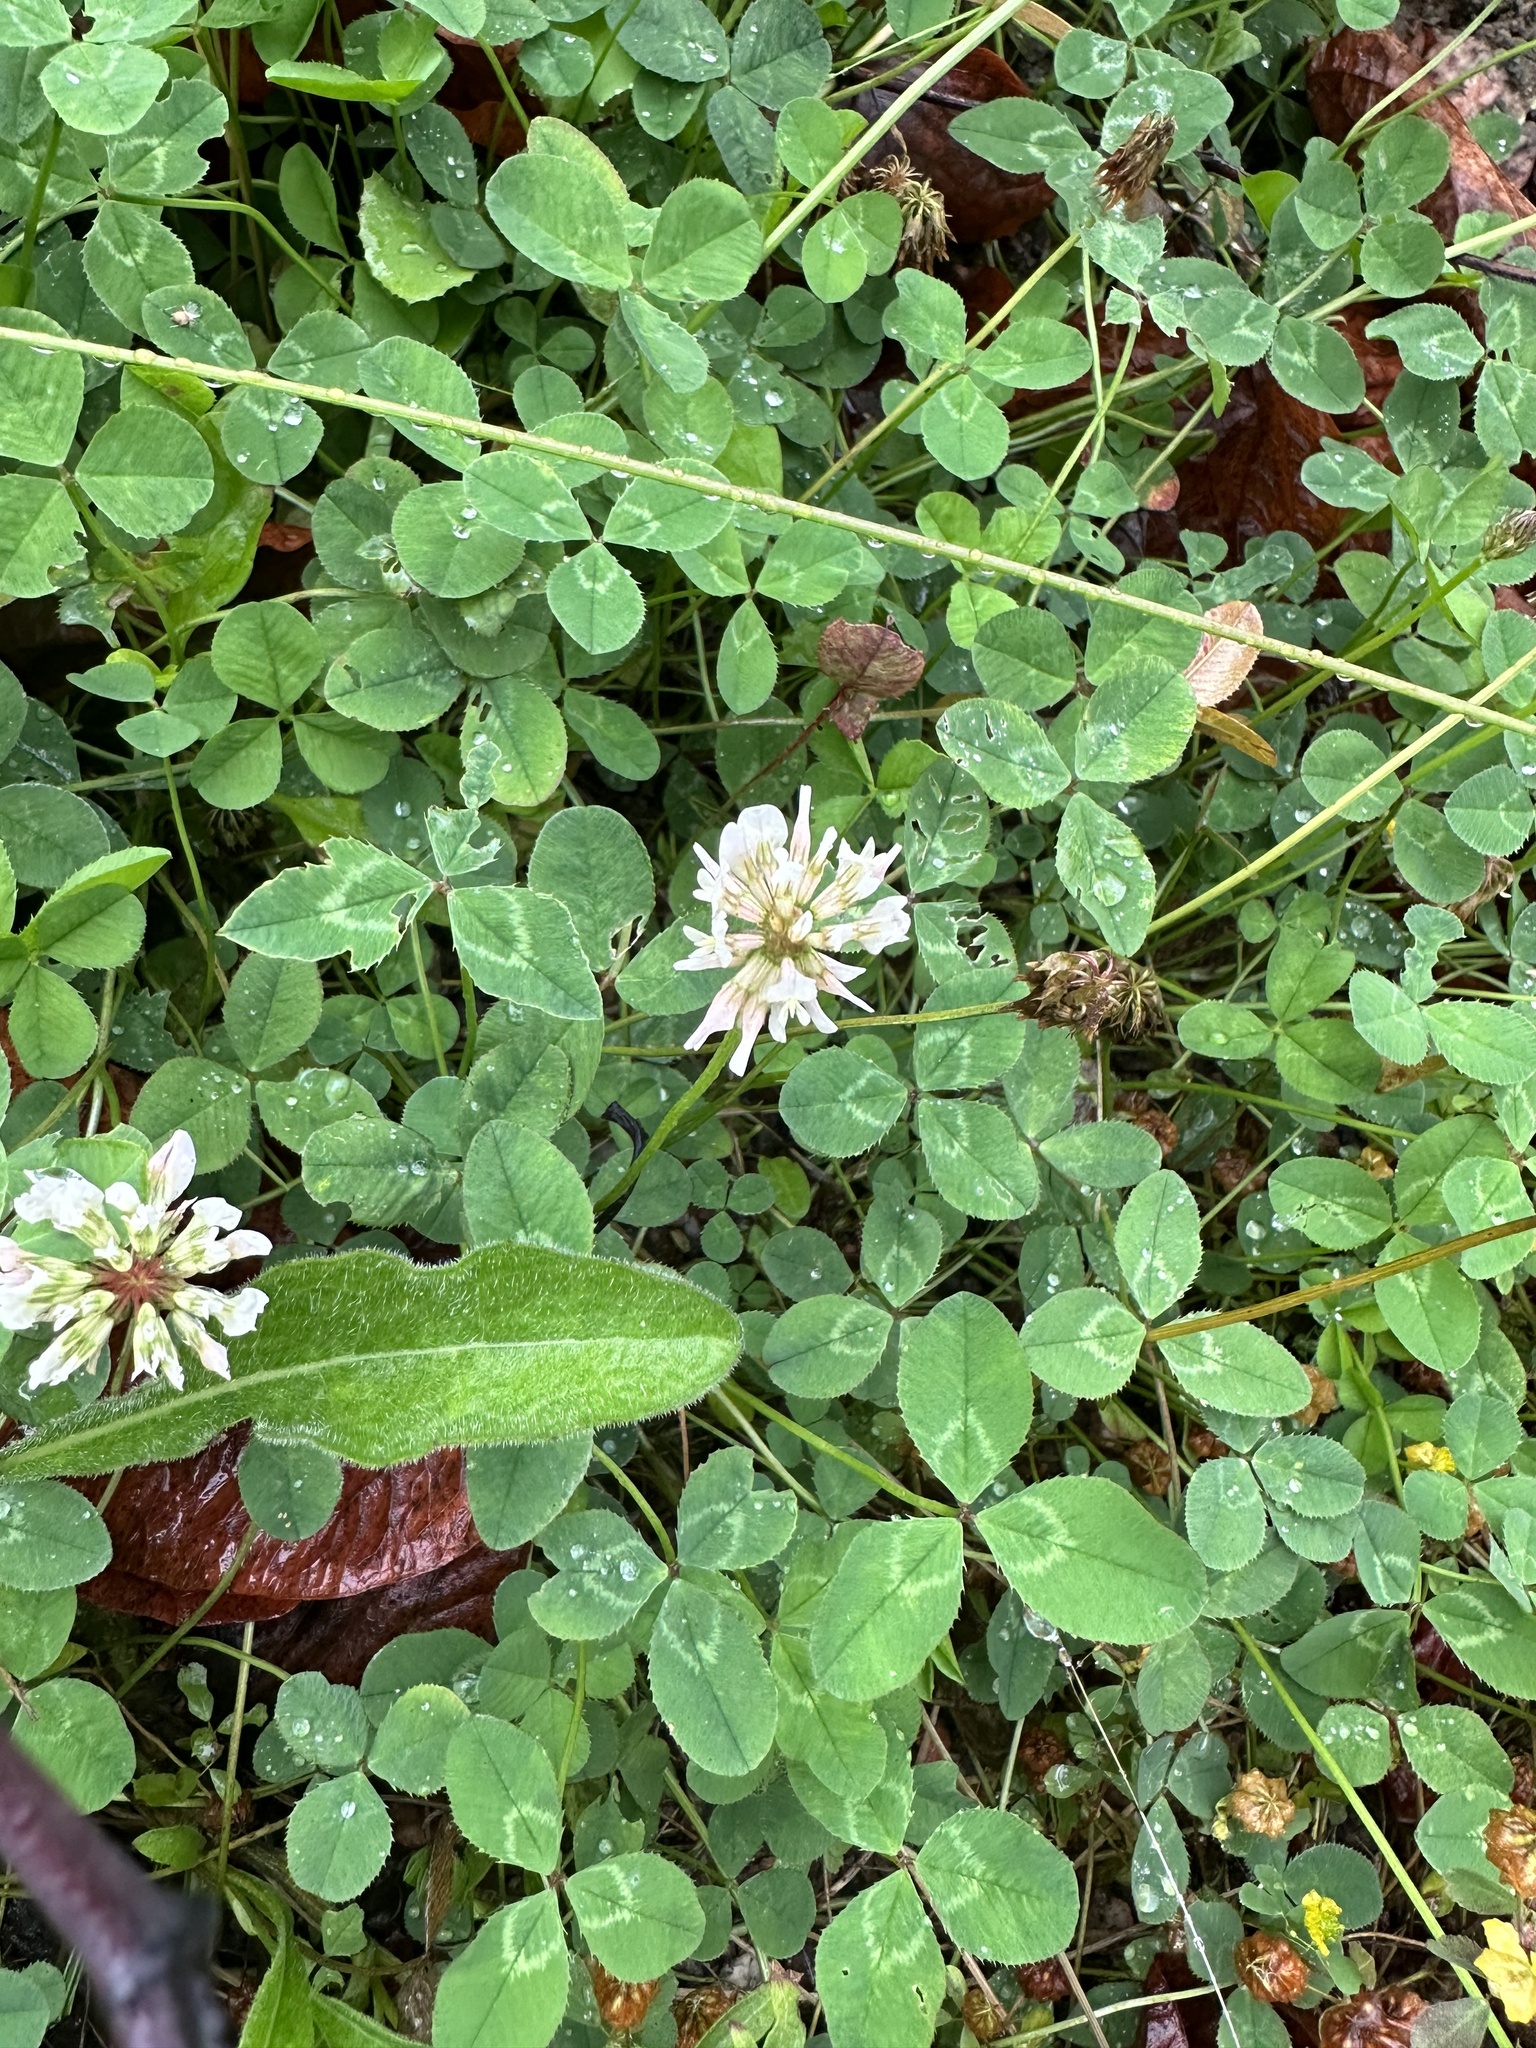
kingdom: Plantae
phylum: Tracheophyta
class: Magnoliopsida
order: Fabales
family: Fabaceae
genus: Trifolium
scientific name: Trifolium repens
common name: White clover
